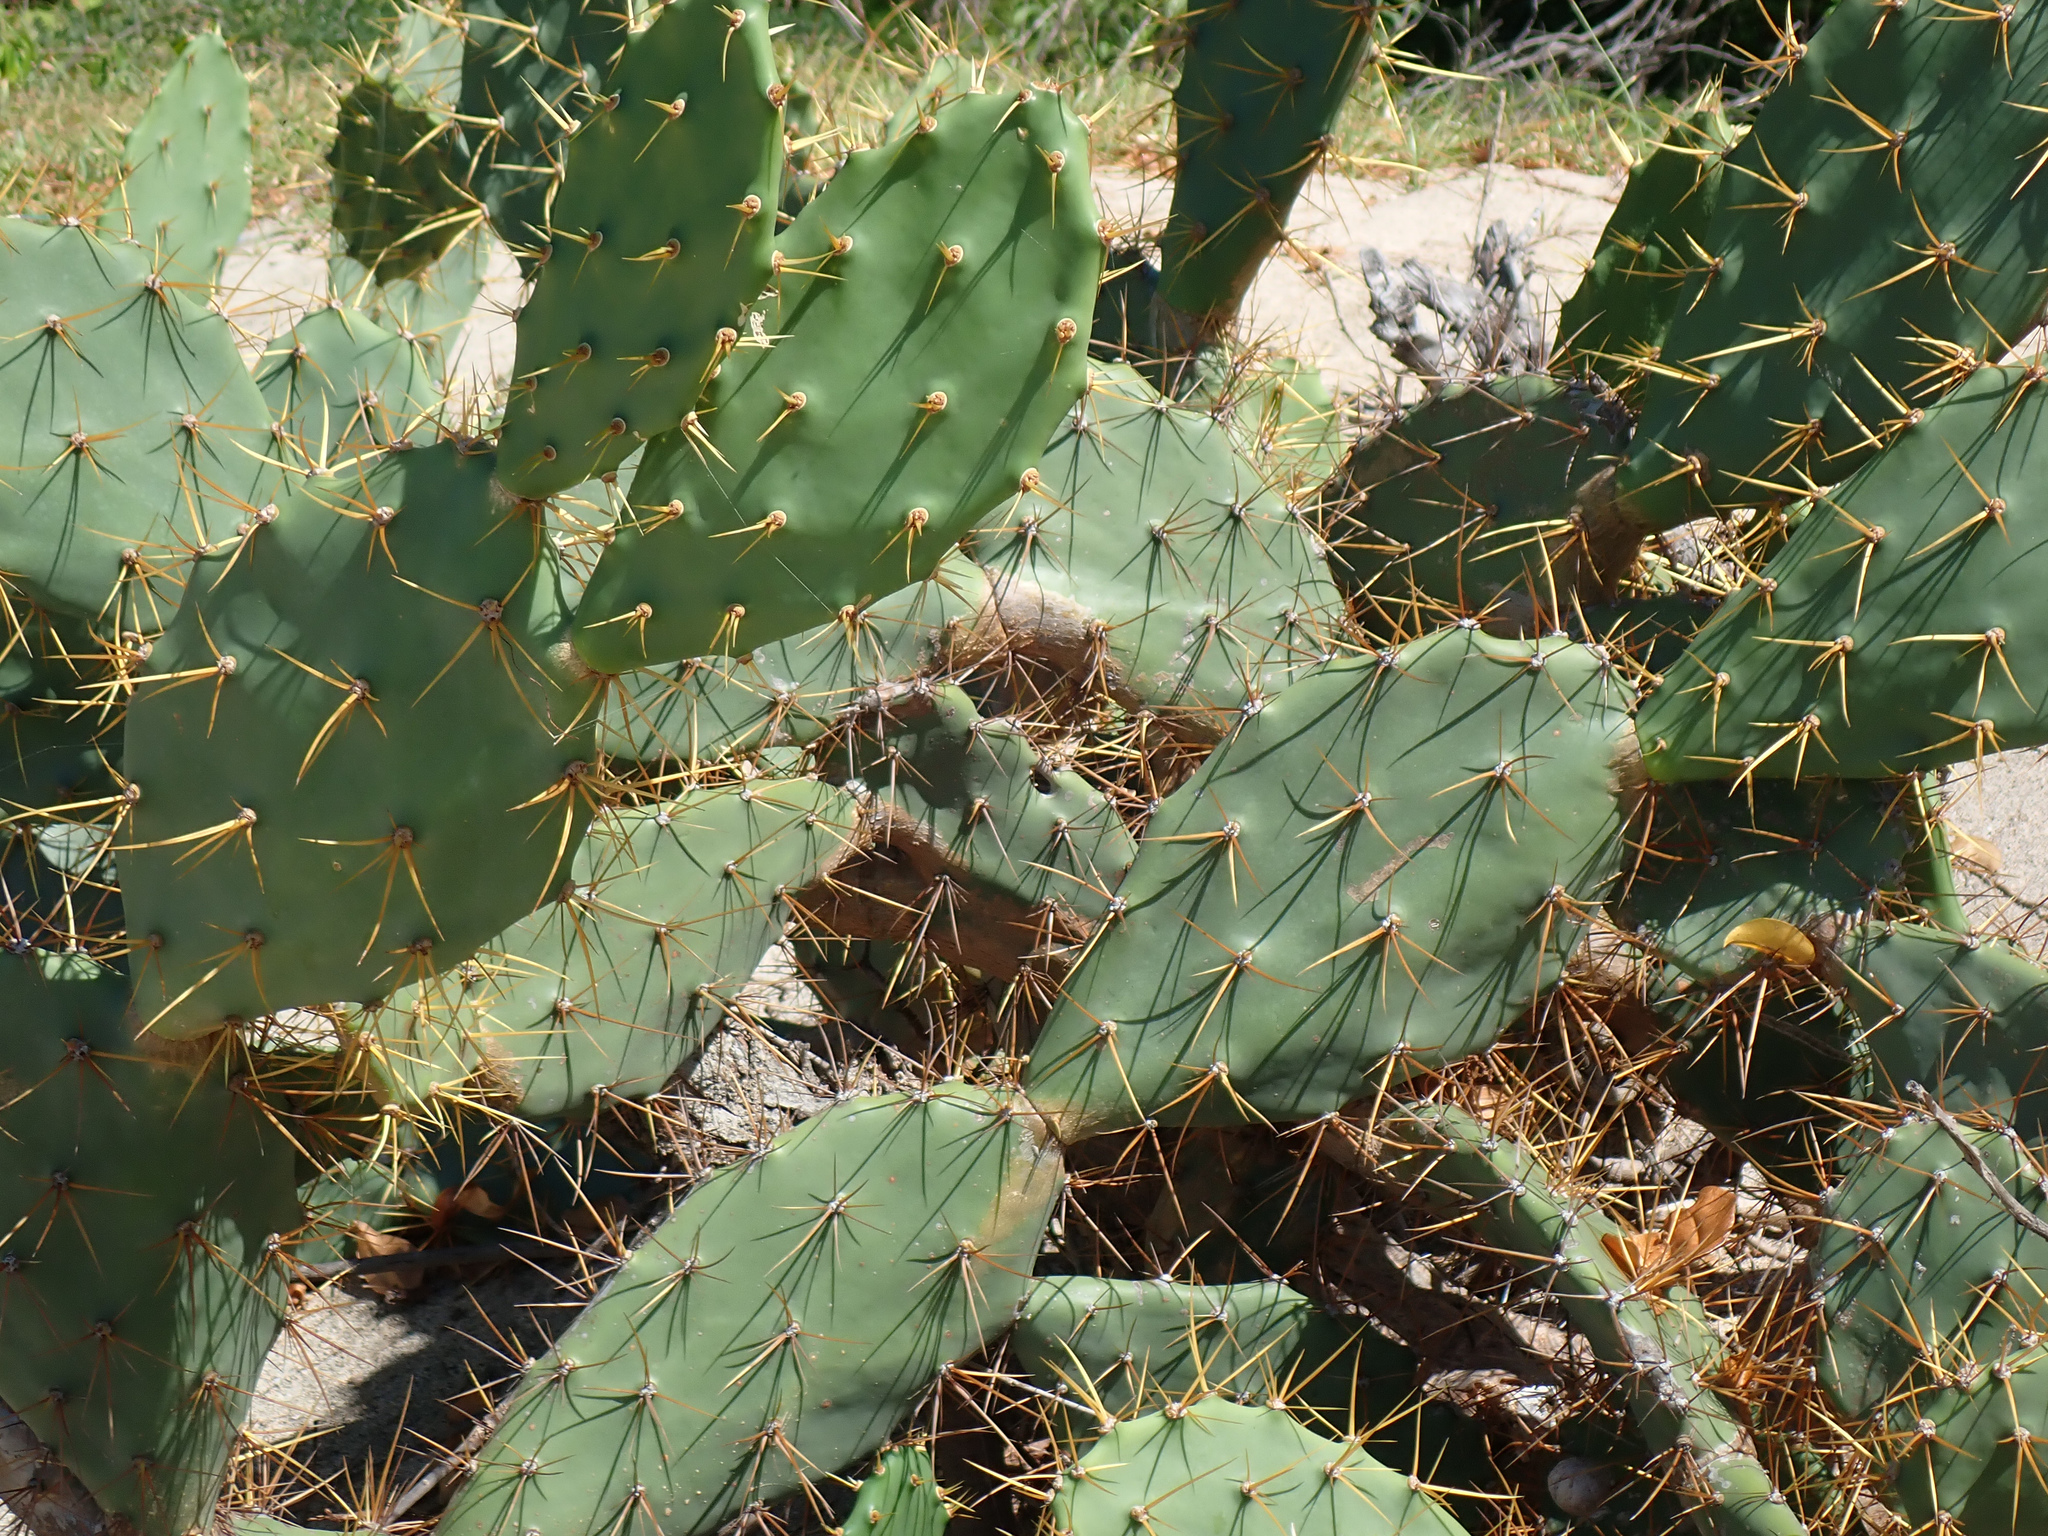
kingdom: Plantae
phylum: Tracheophyta
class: Magnoliopsida
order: Caryophyllales
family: Cactaceae
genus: Opuntia
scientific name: Opuntia stricta
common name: Erect pricklypear
